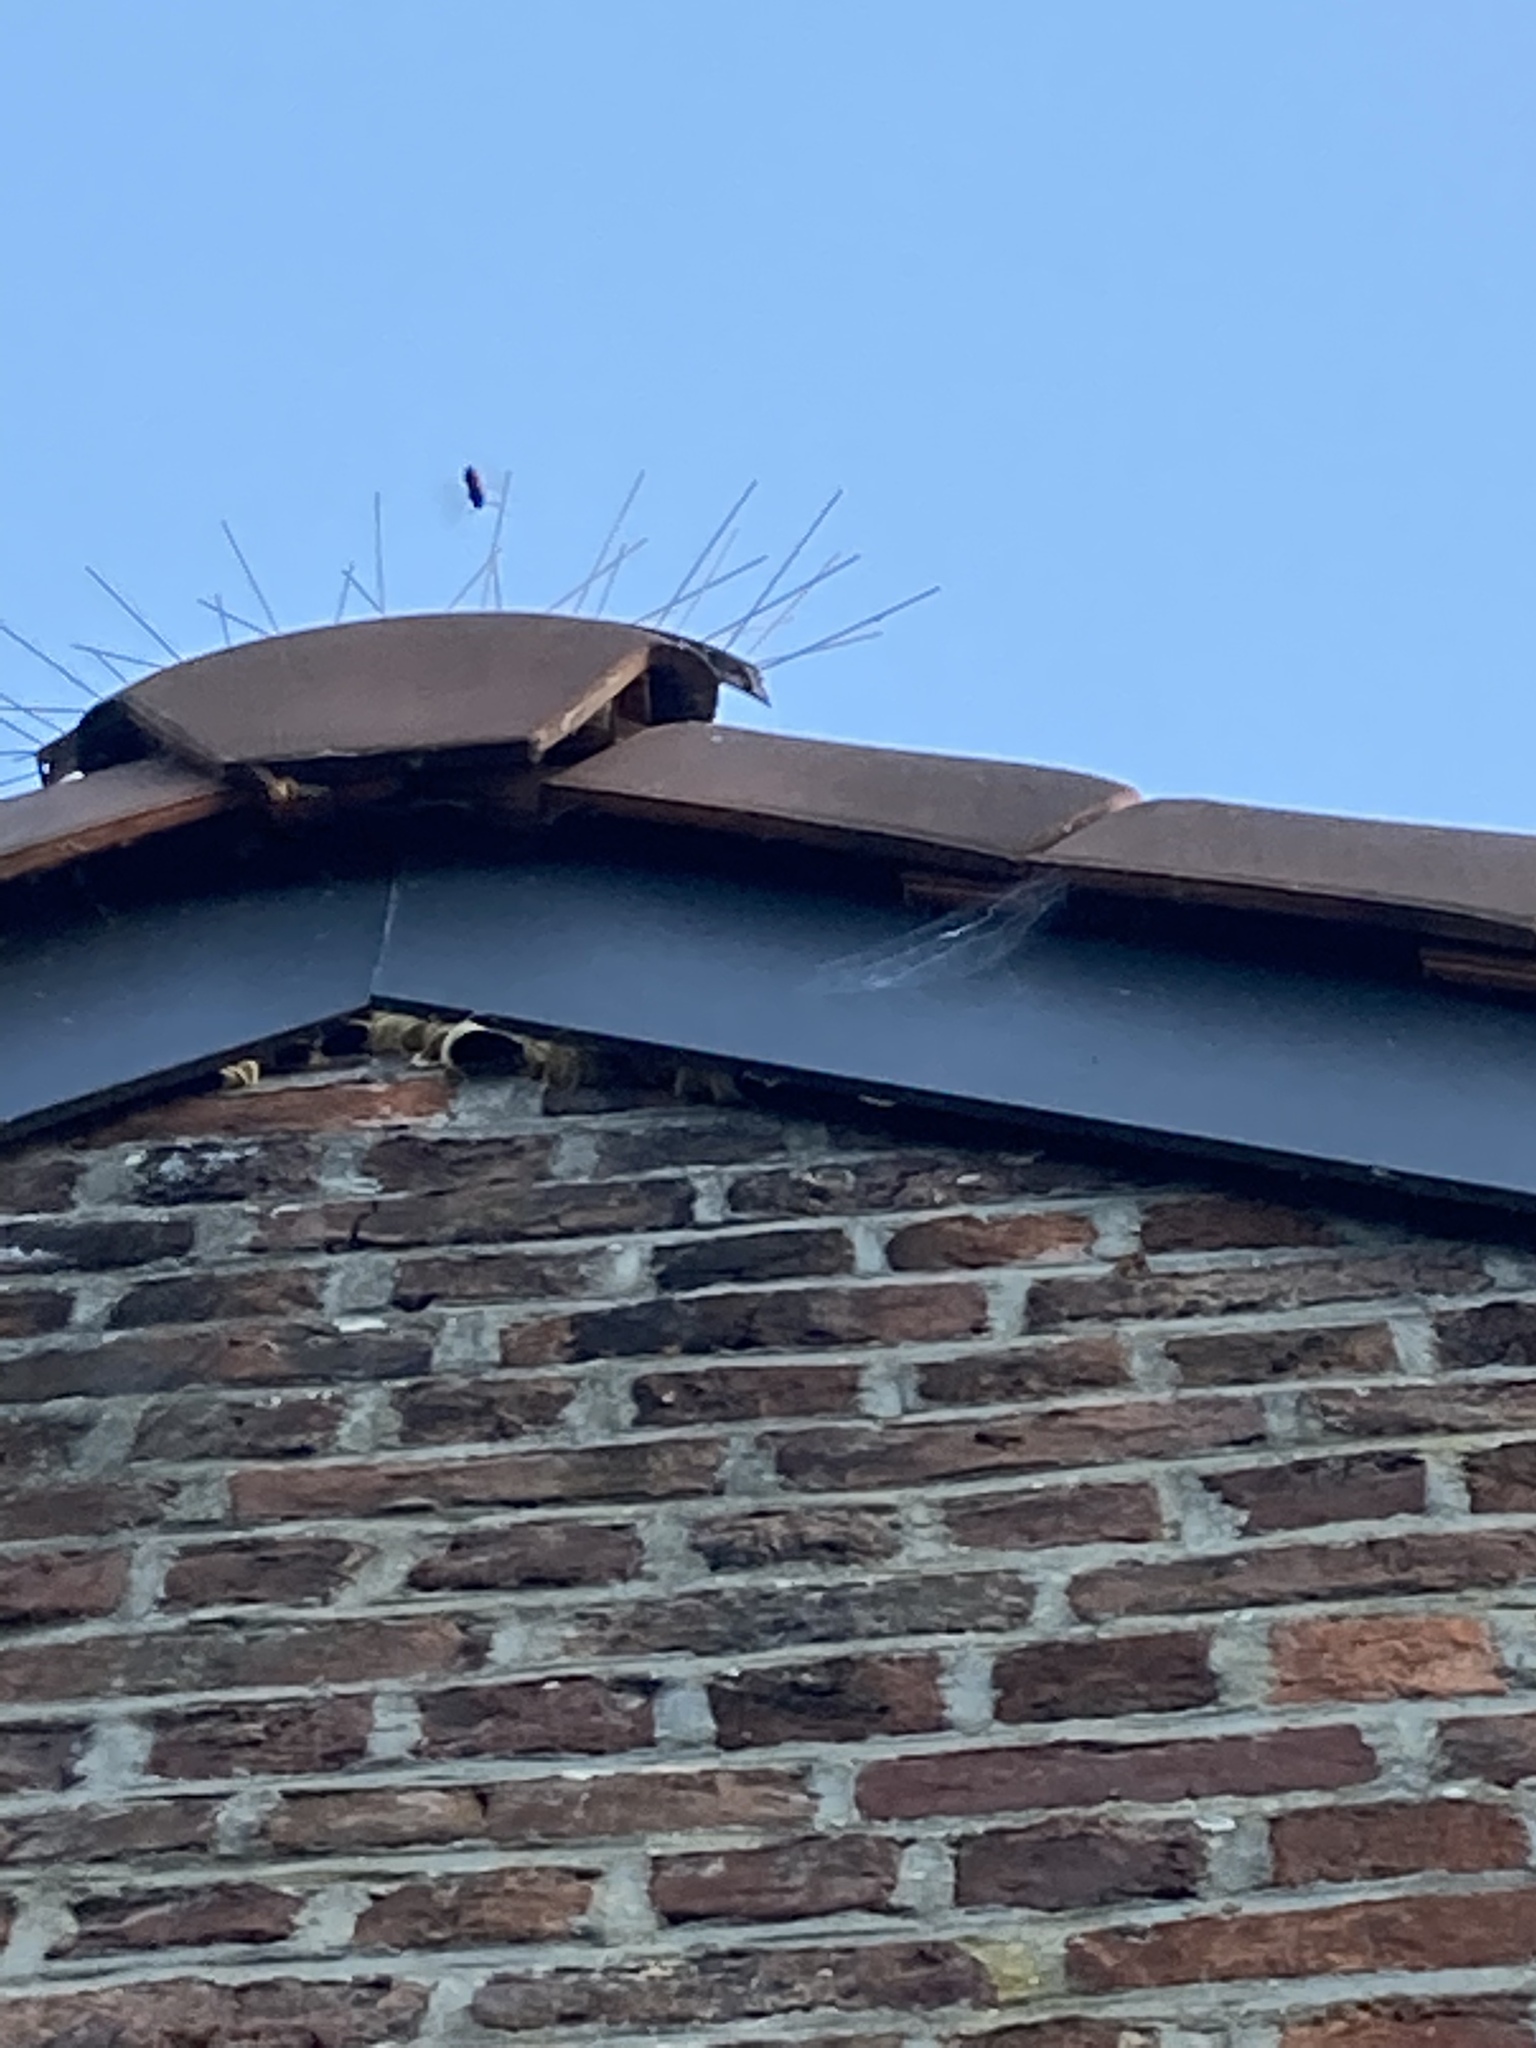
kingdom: Animalia
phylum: Arthropoda
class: Insecta
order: Hymenoptera
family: Vespidae
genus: Vespa
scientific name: Vespa crabro
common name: Hornet
